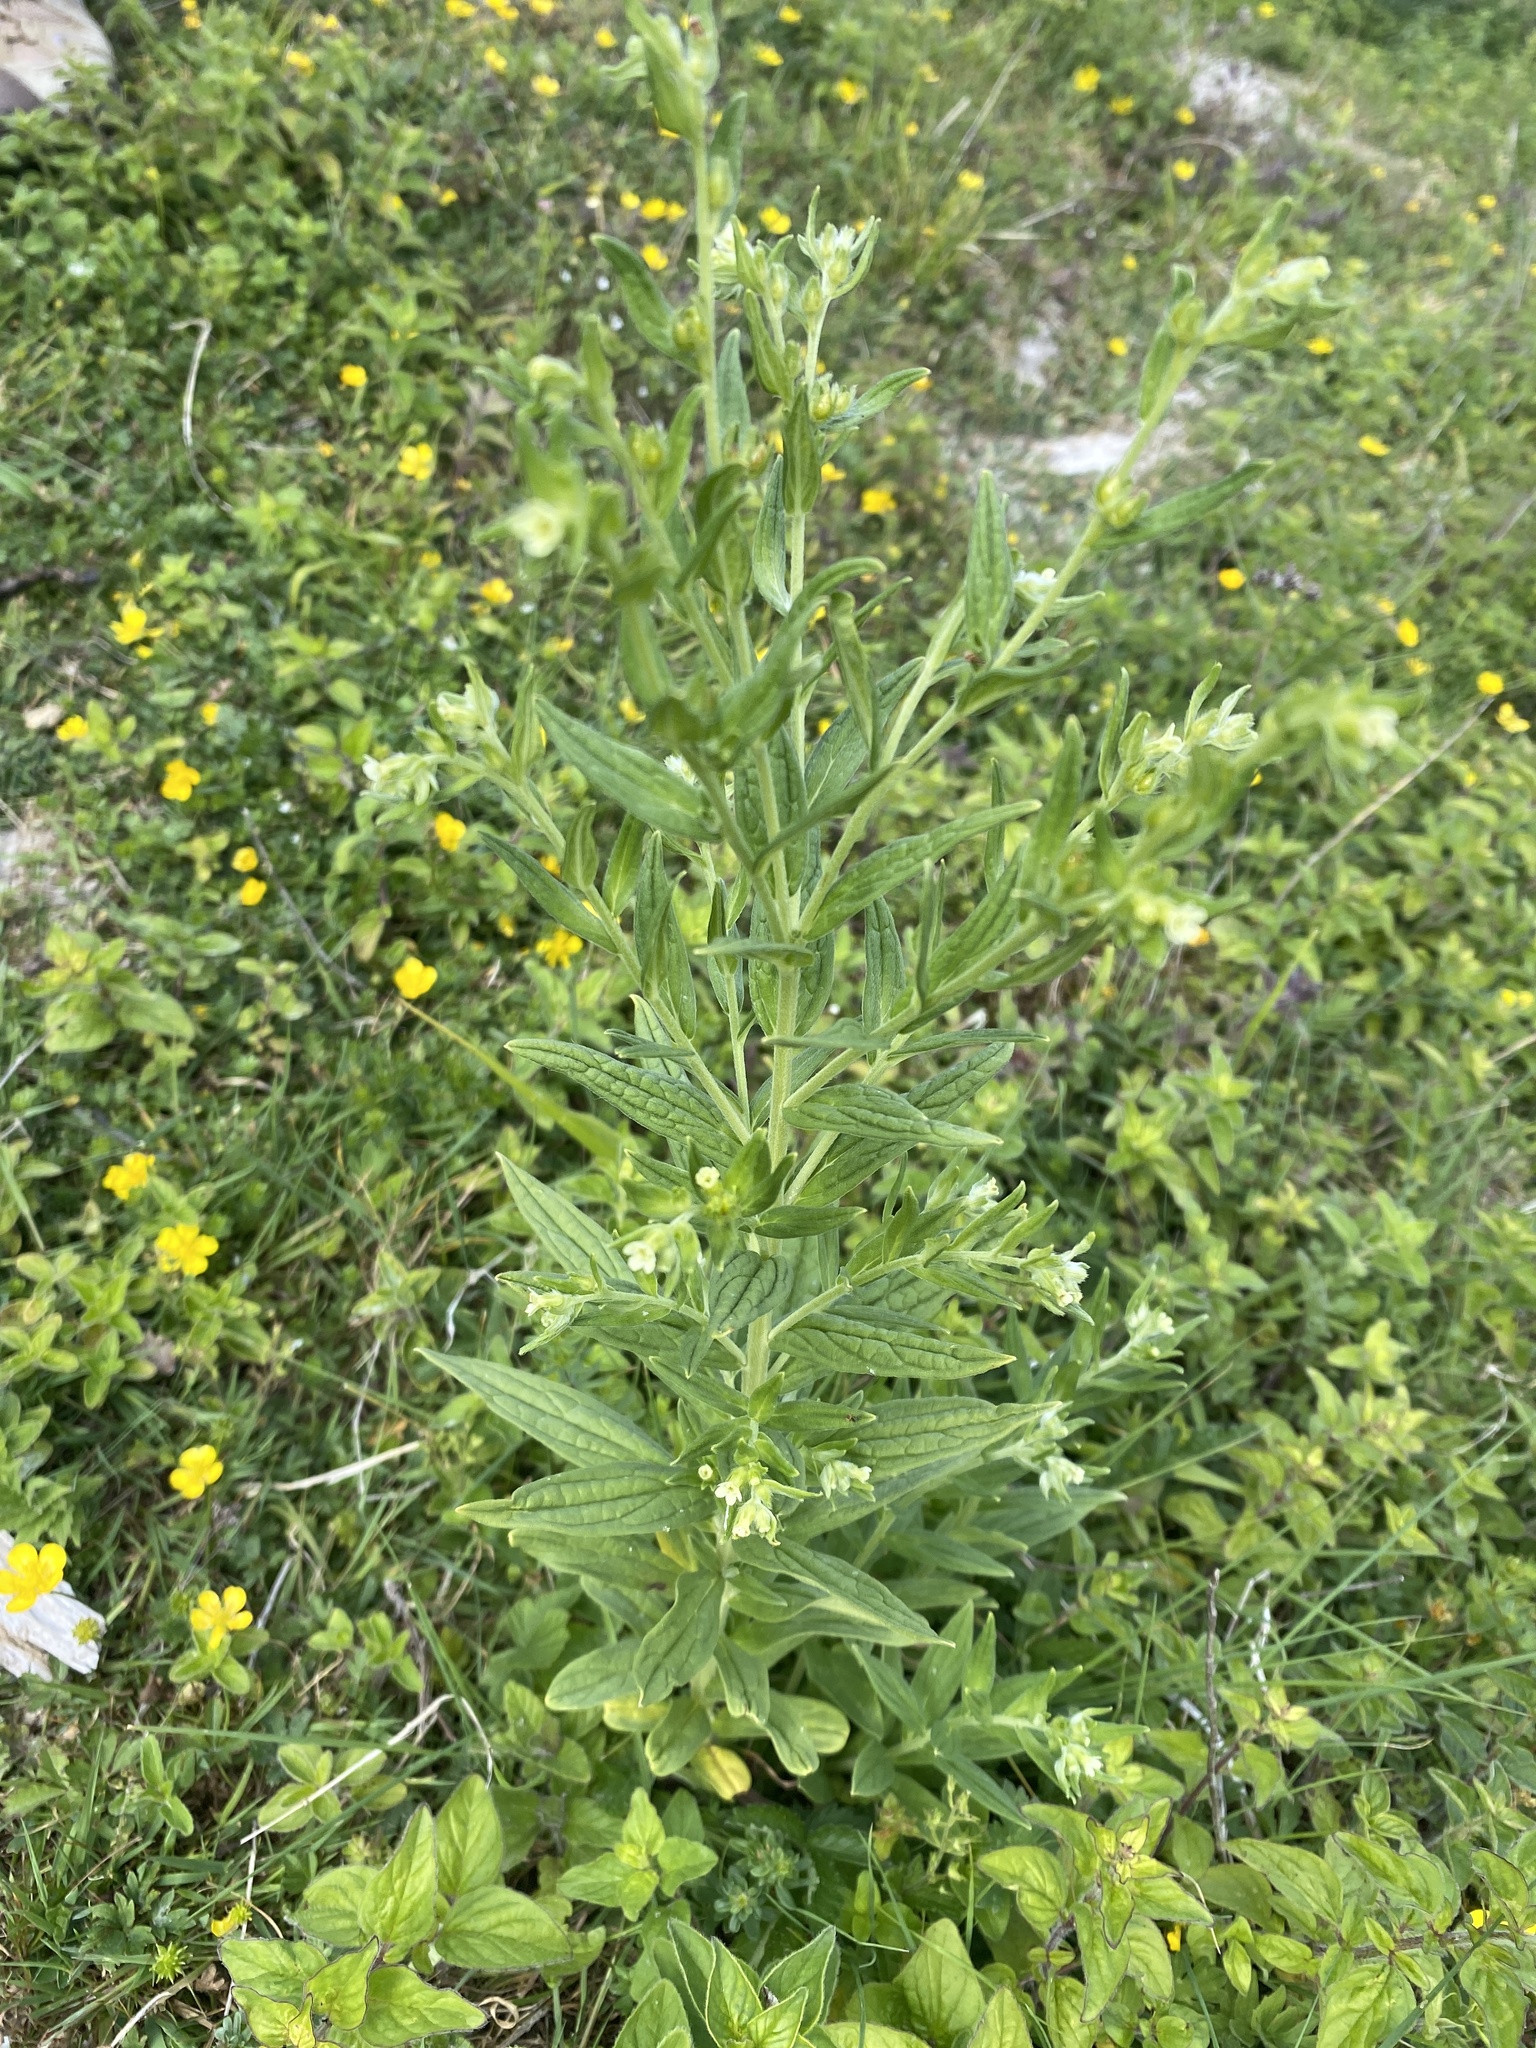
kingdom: Plantae
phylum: Tracheophyta
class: Magnoliopsida
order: Boraginales
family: Boraginaceae
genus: Lithospermum
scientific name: Lithospermum officinale
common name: Common gromwell
